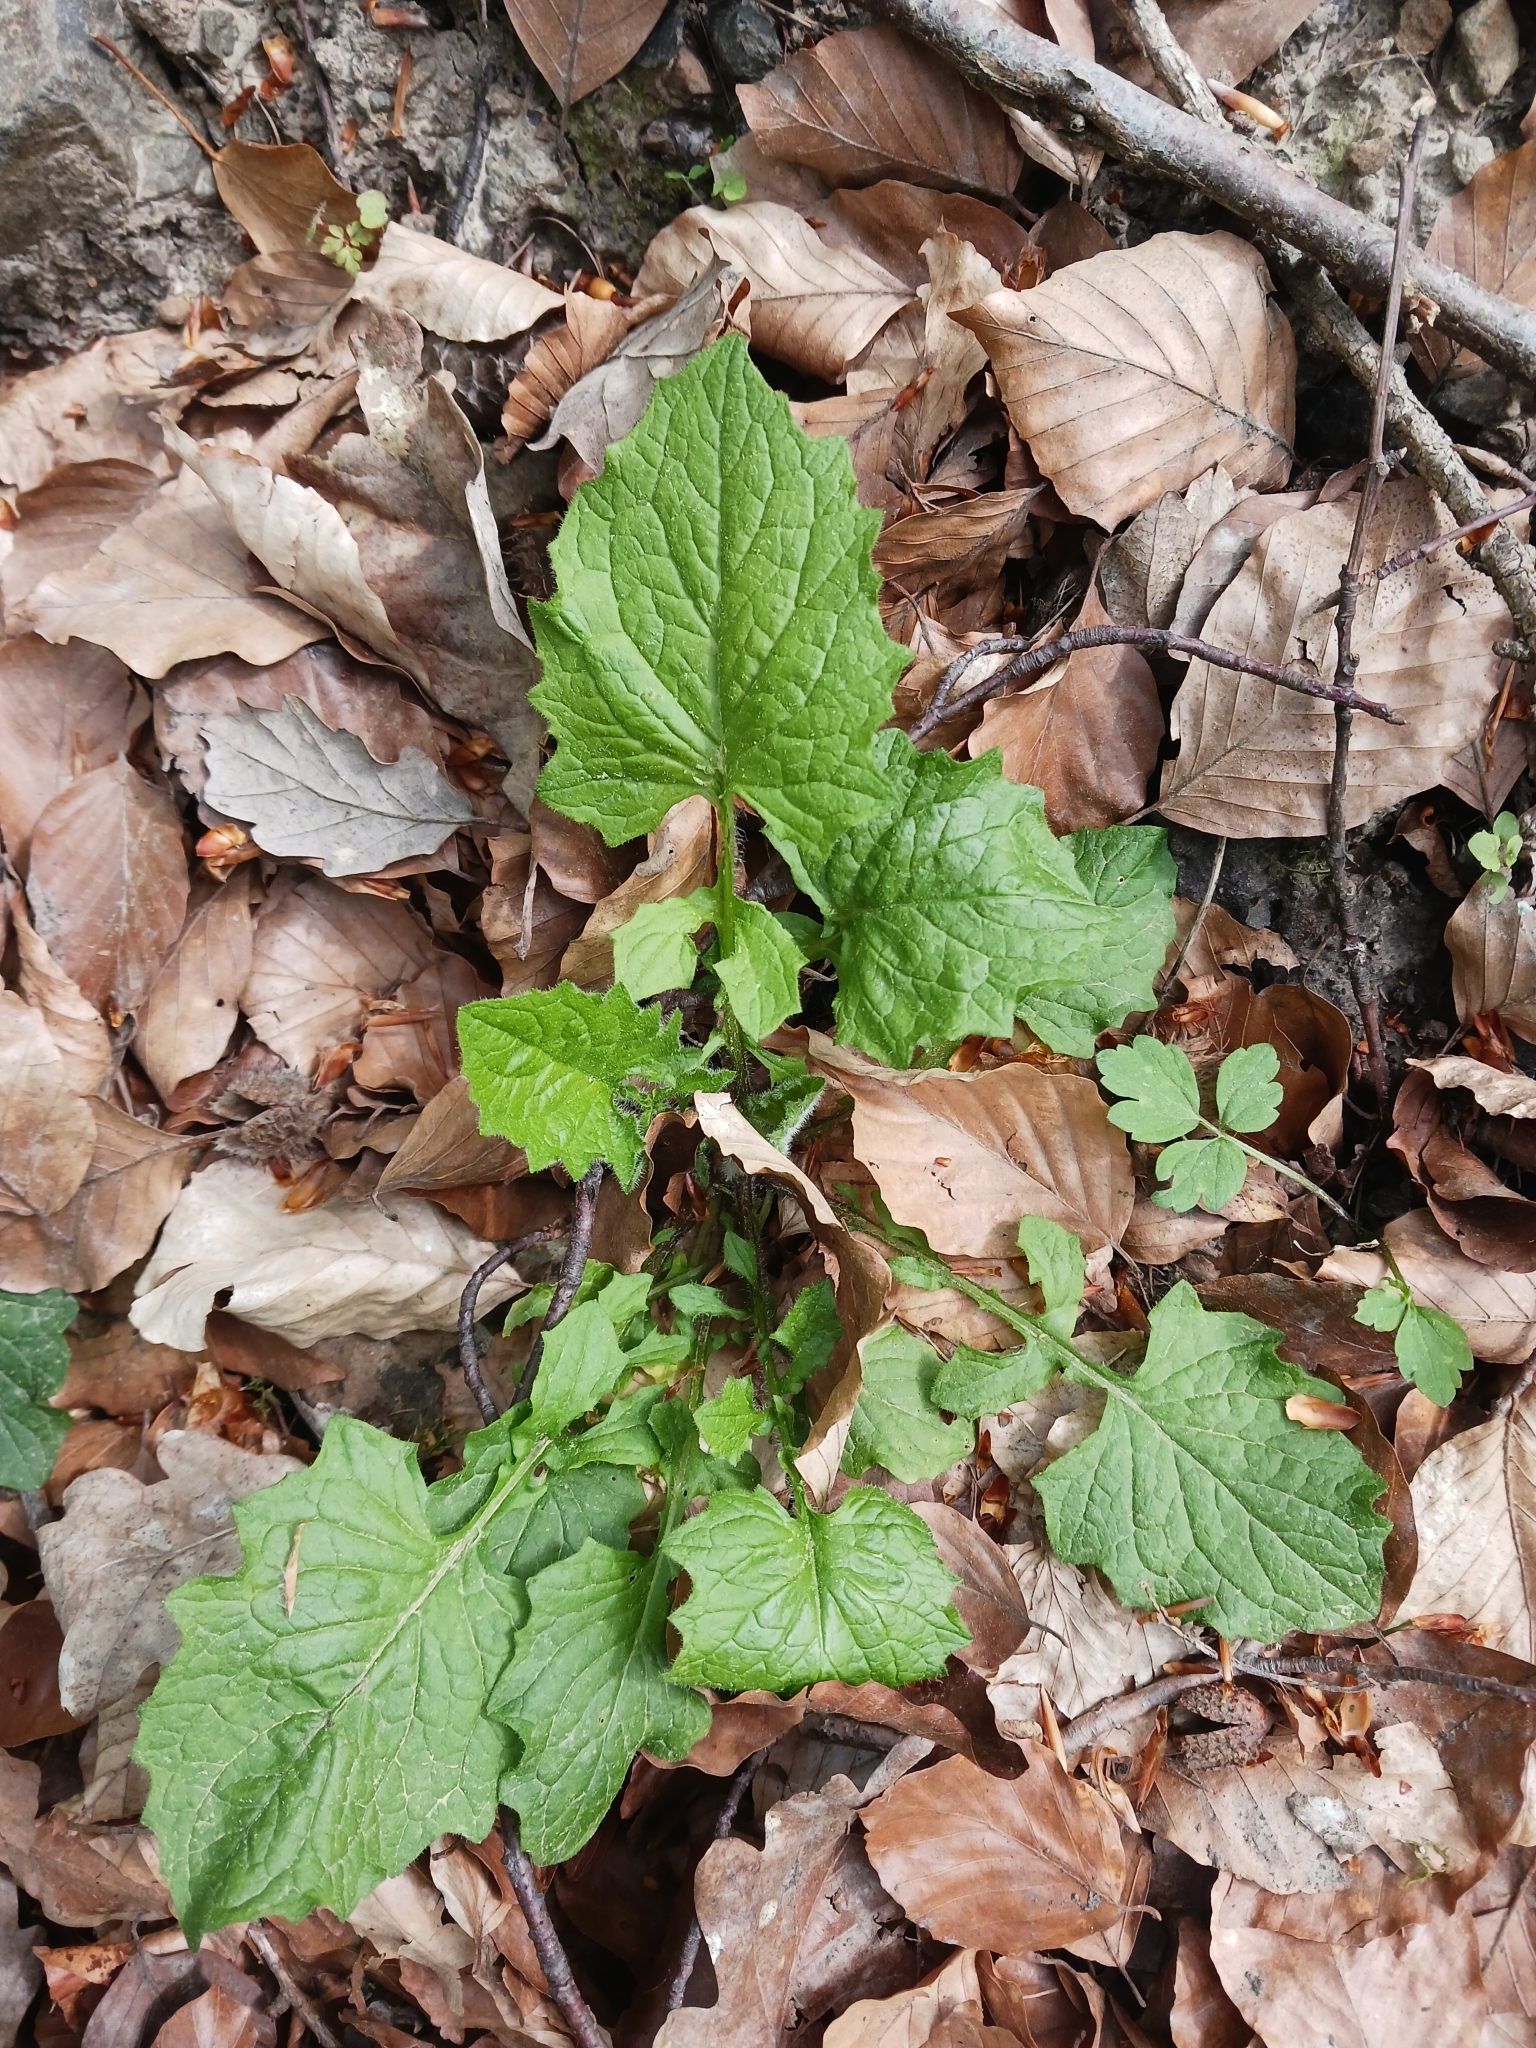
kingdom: Plantae
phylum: Tracheophyta
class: Magnoliopsida
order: Asterales
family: Asteraceae
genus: Lapsana
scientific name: Lapsana communis
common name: Nipplewort
